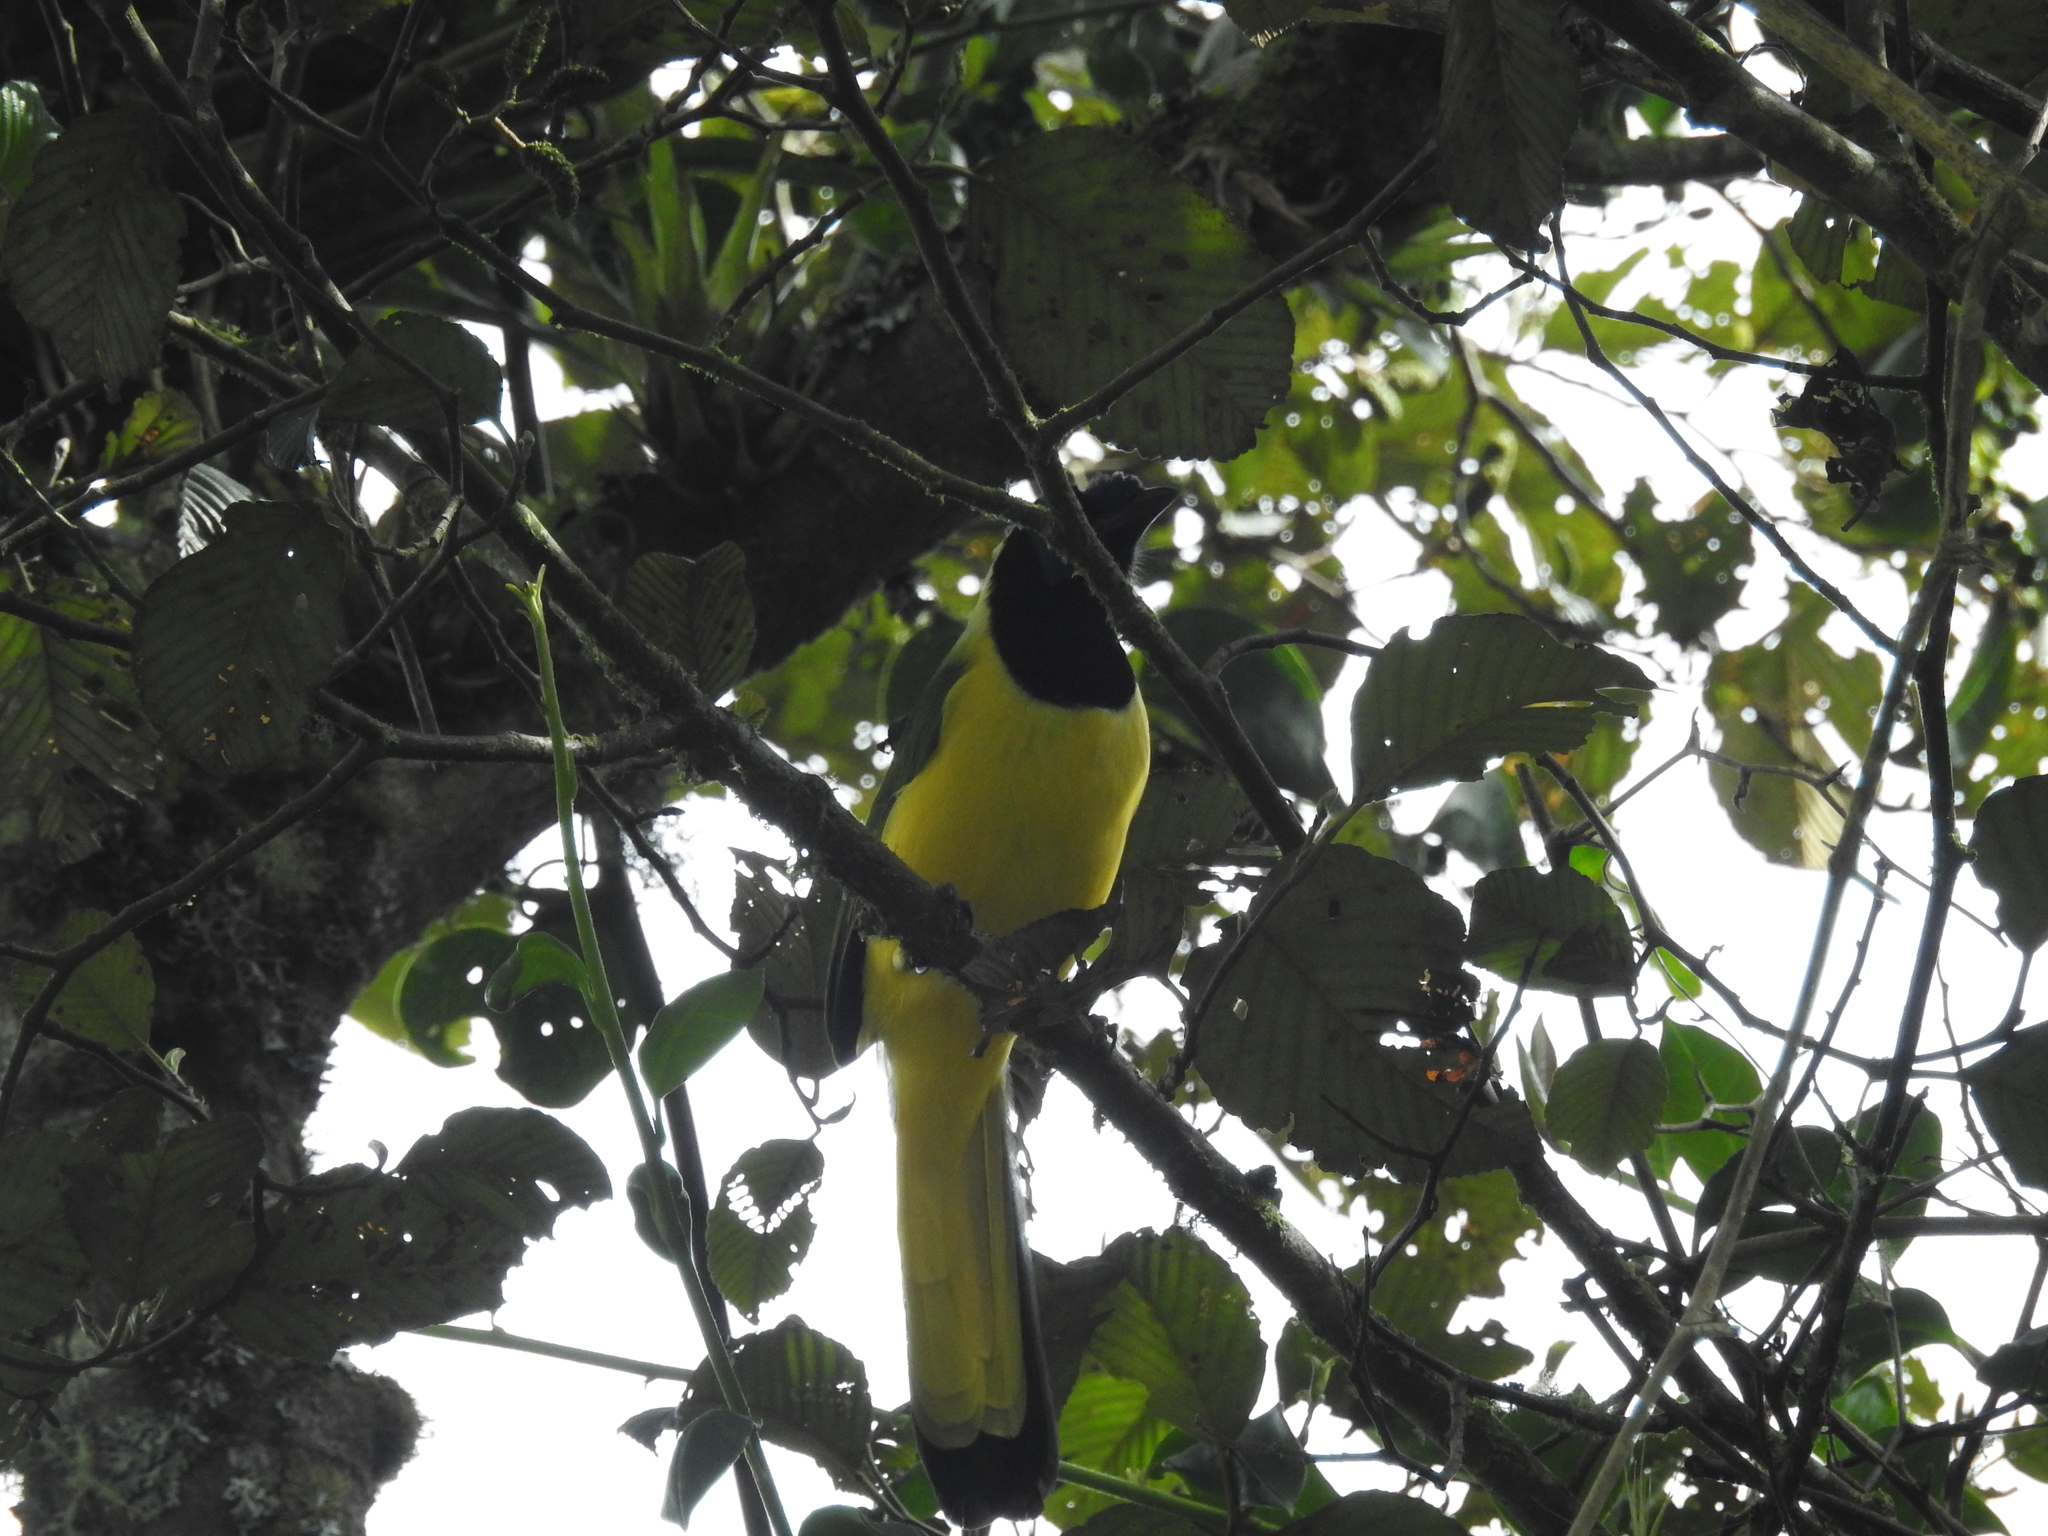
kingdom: Animalia
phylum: Chordata
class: Aves
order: Passeriformes
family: Corvidae
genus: Cyanocorax
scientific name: Cyanocorax yncas
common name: Green jay
